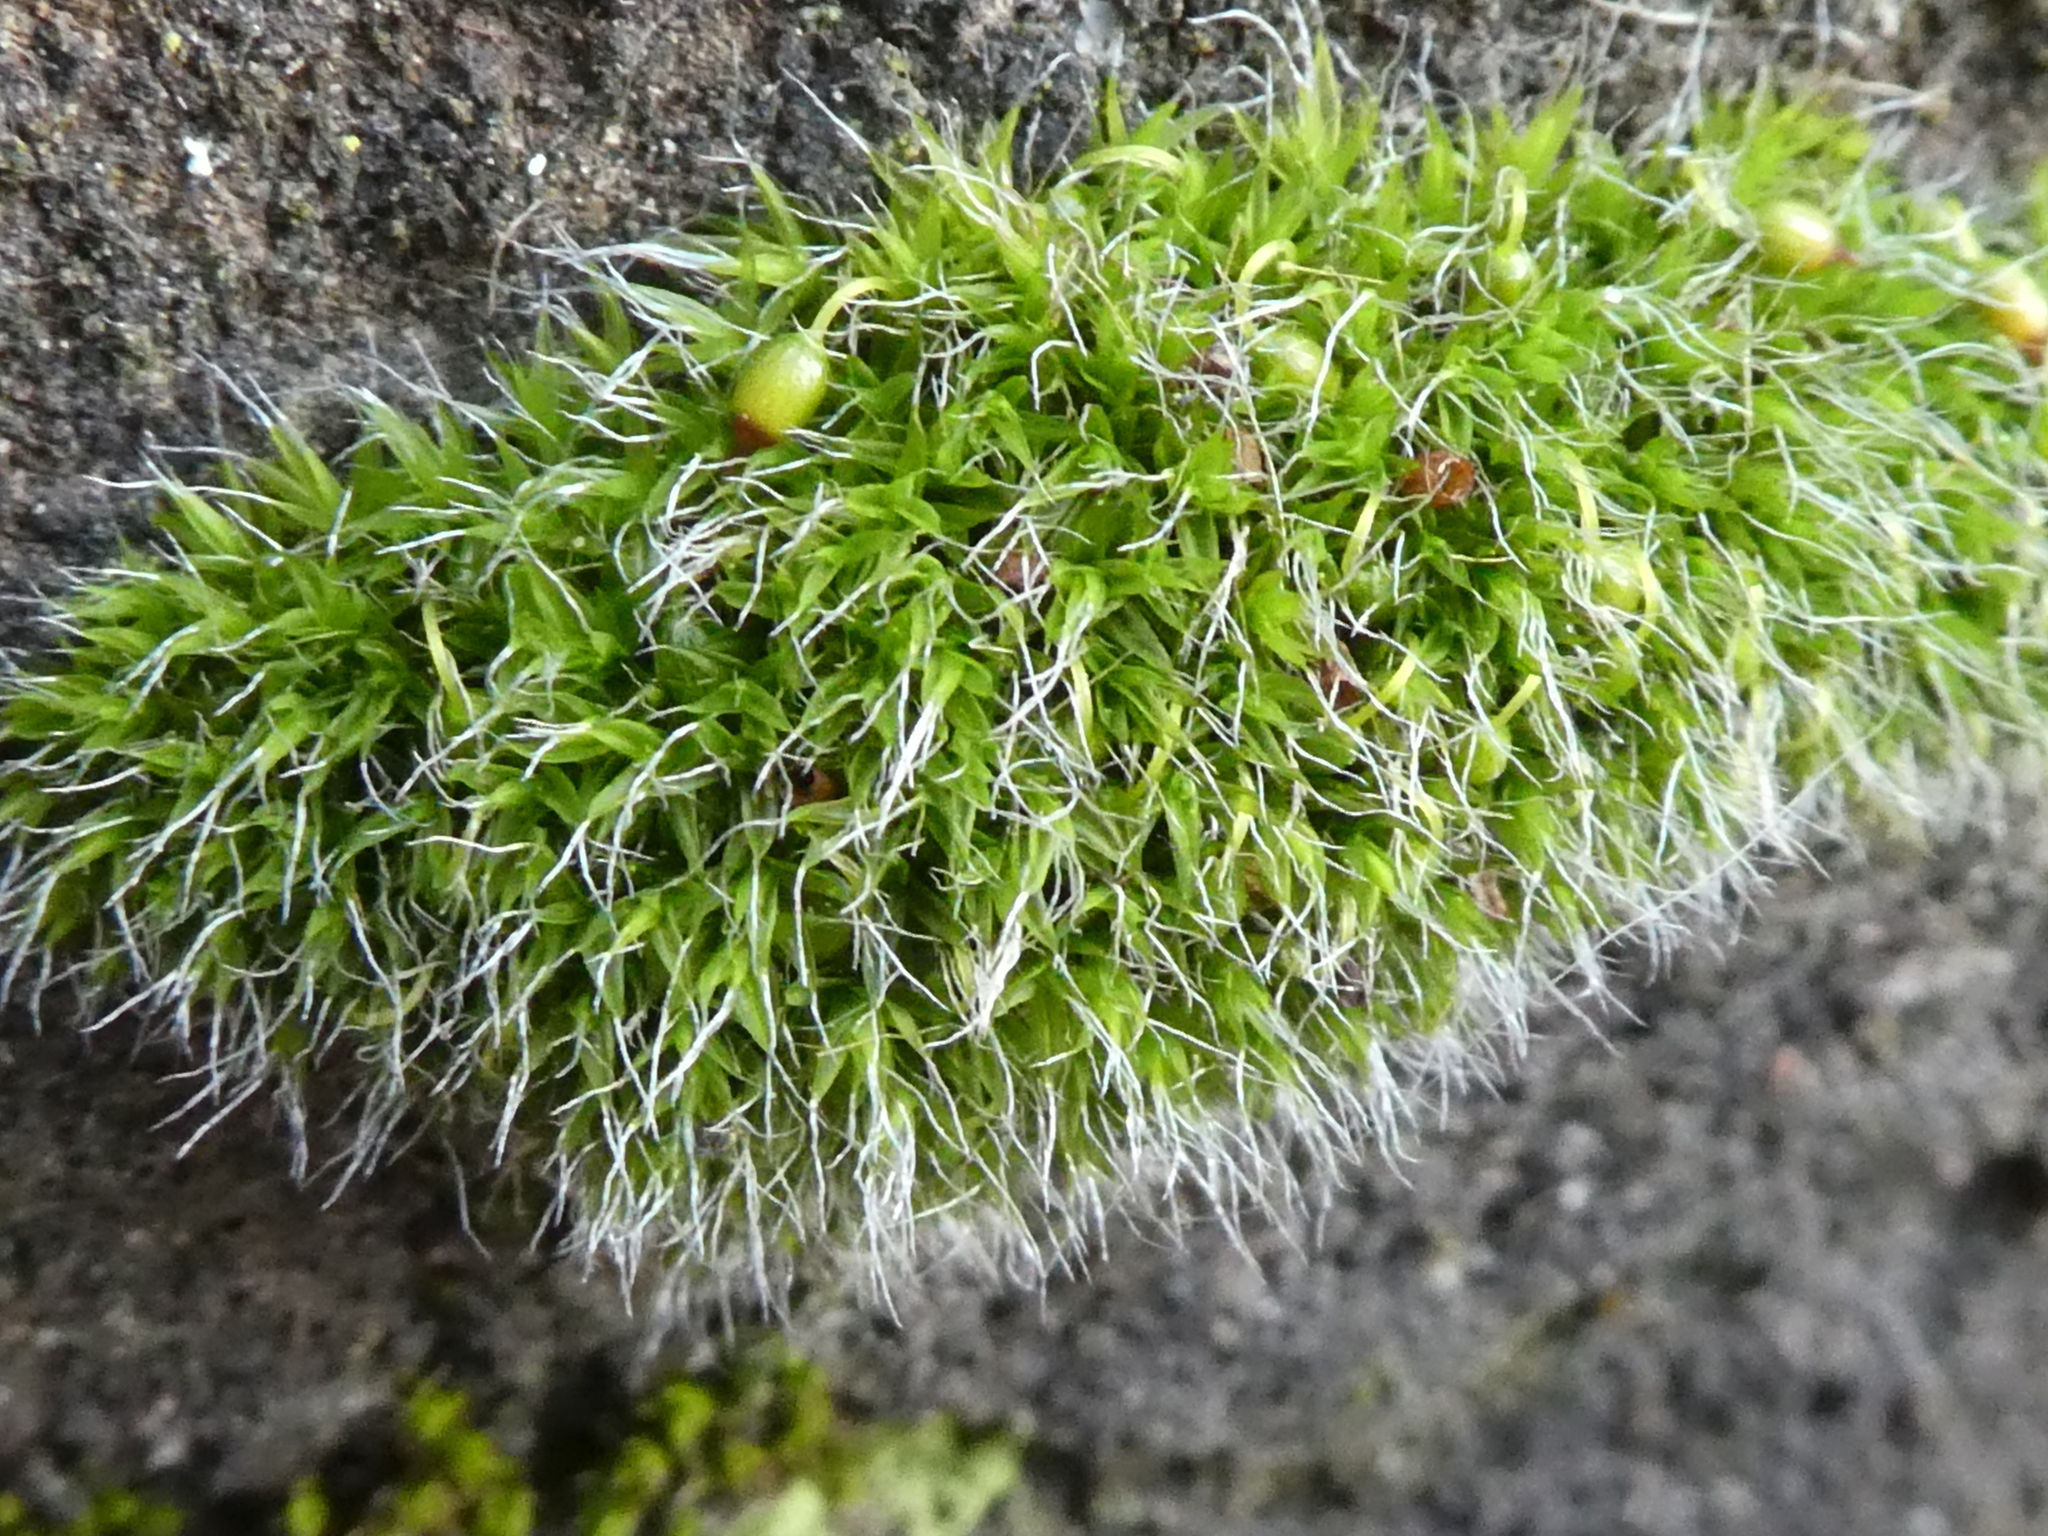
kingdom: Plantae
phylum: Bryophyta
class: Bryopsida
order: Grimmiales
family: Grimmiaceae
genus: Grimmia
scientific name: Grimmia pulvinata
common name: Grey-cushioned grimmia
